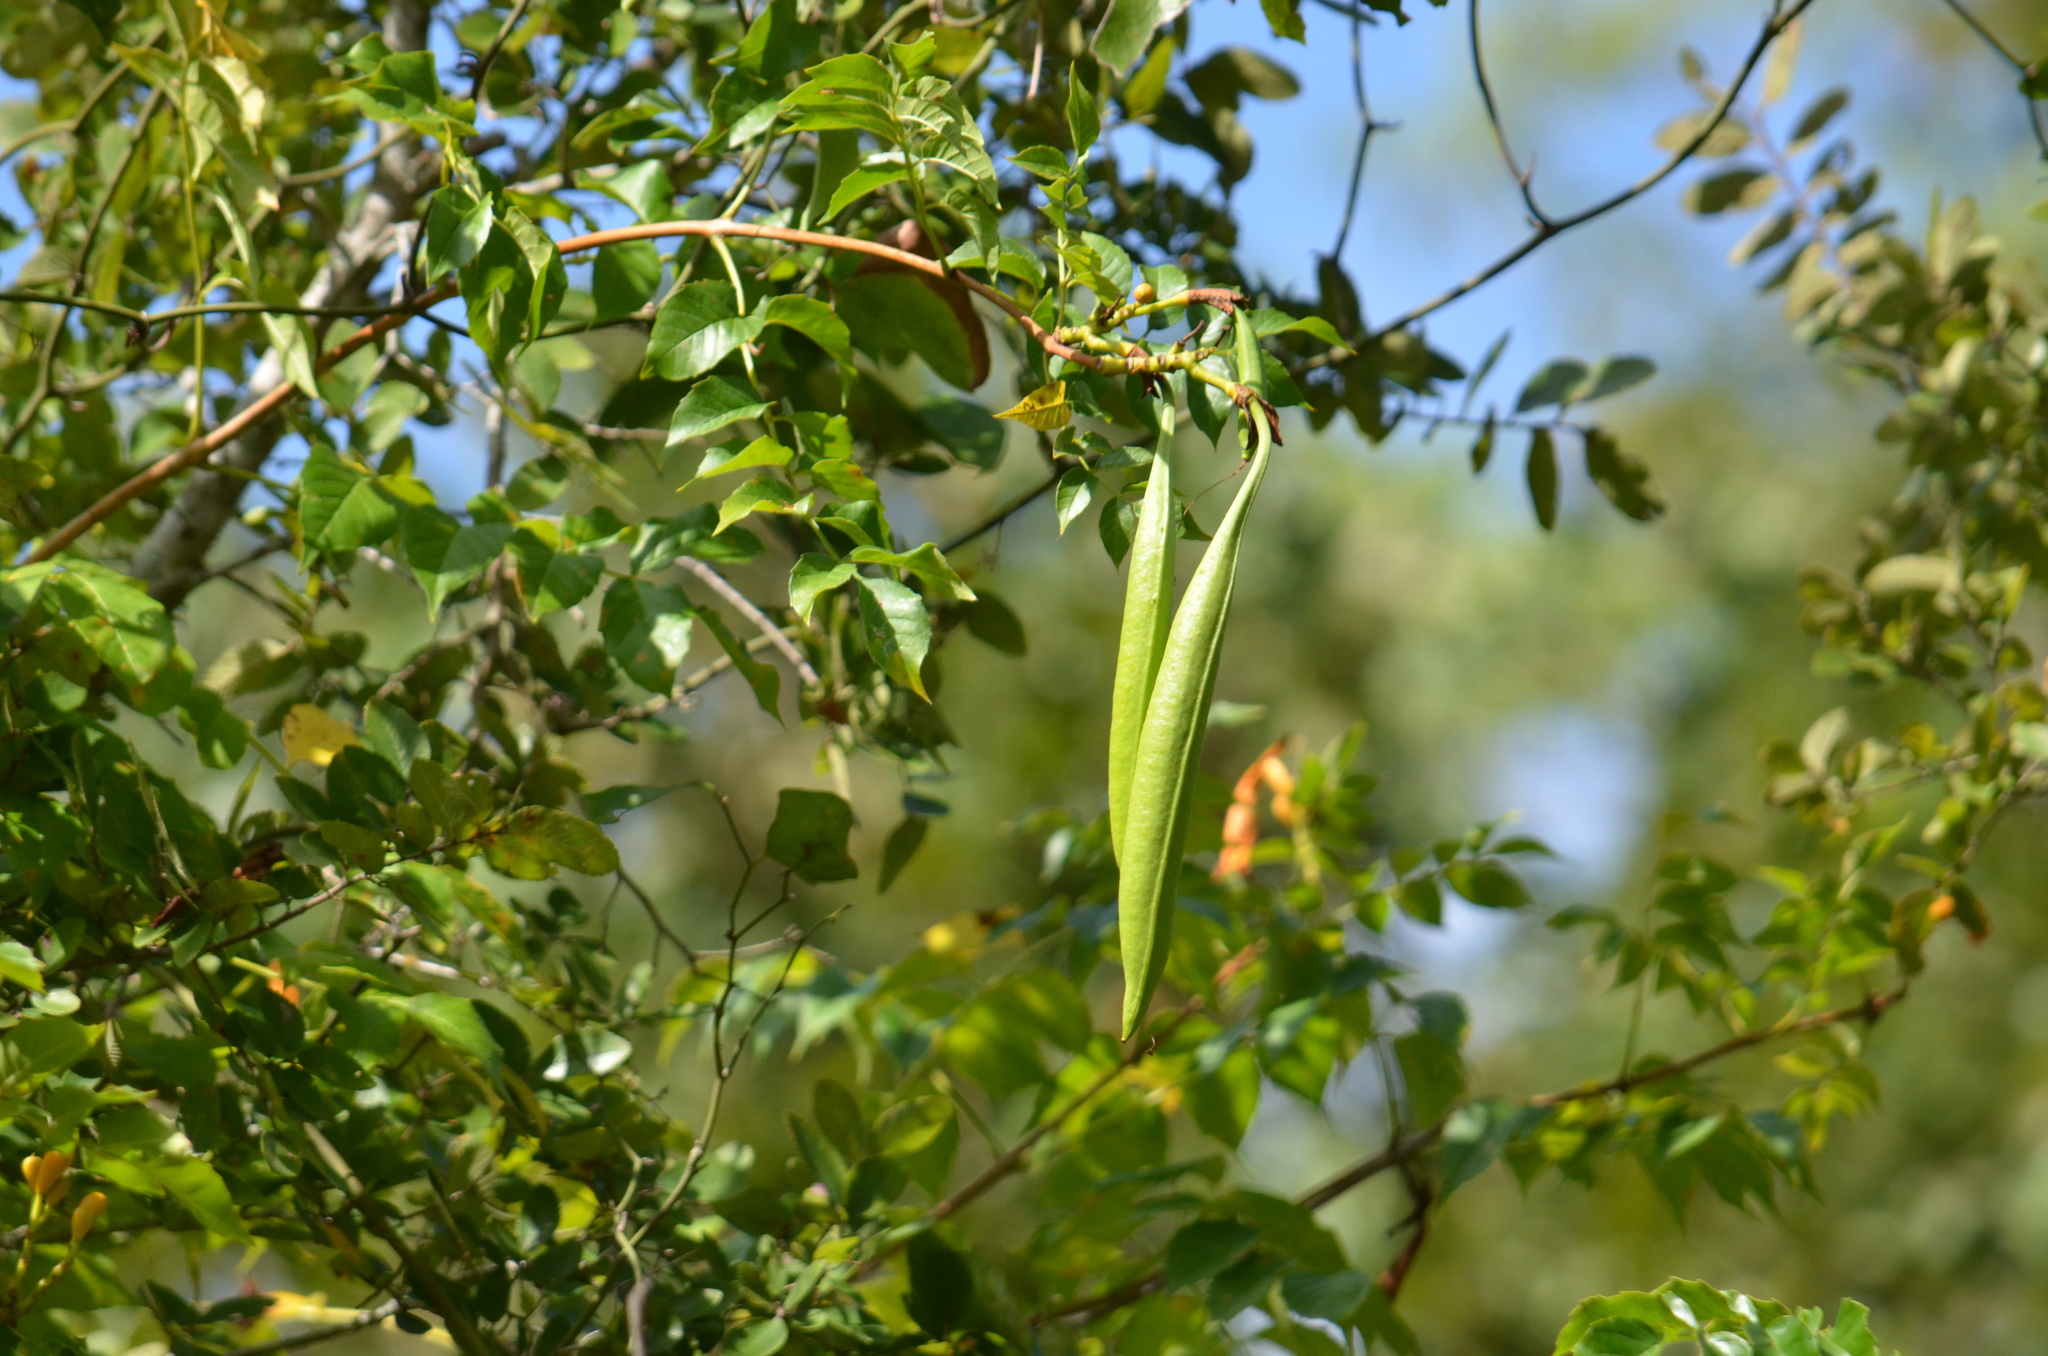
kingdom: Plantae
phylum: Tracheophyta
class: Magnoliopsida
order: Lamiales
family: Bignoniaceae
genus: Campsis
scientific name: Campsis radicans
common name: Trumpet-creeper
